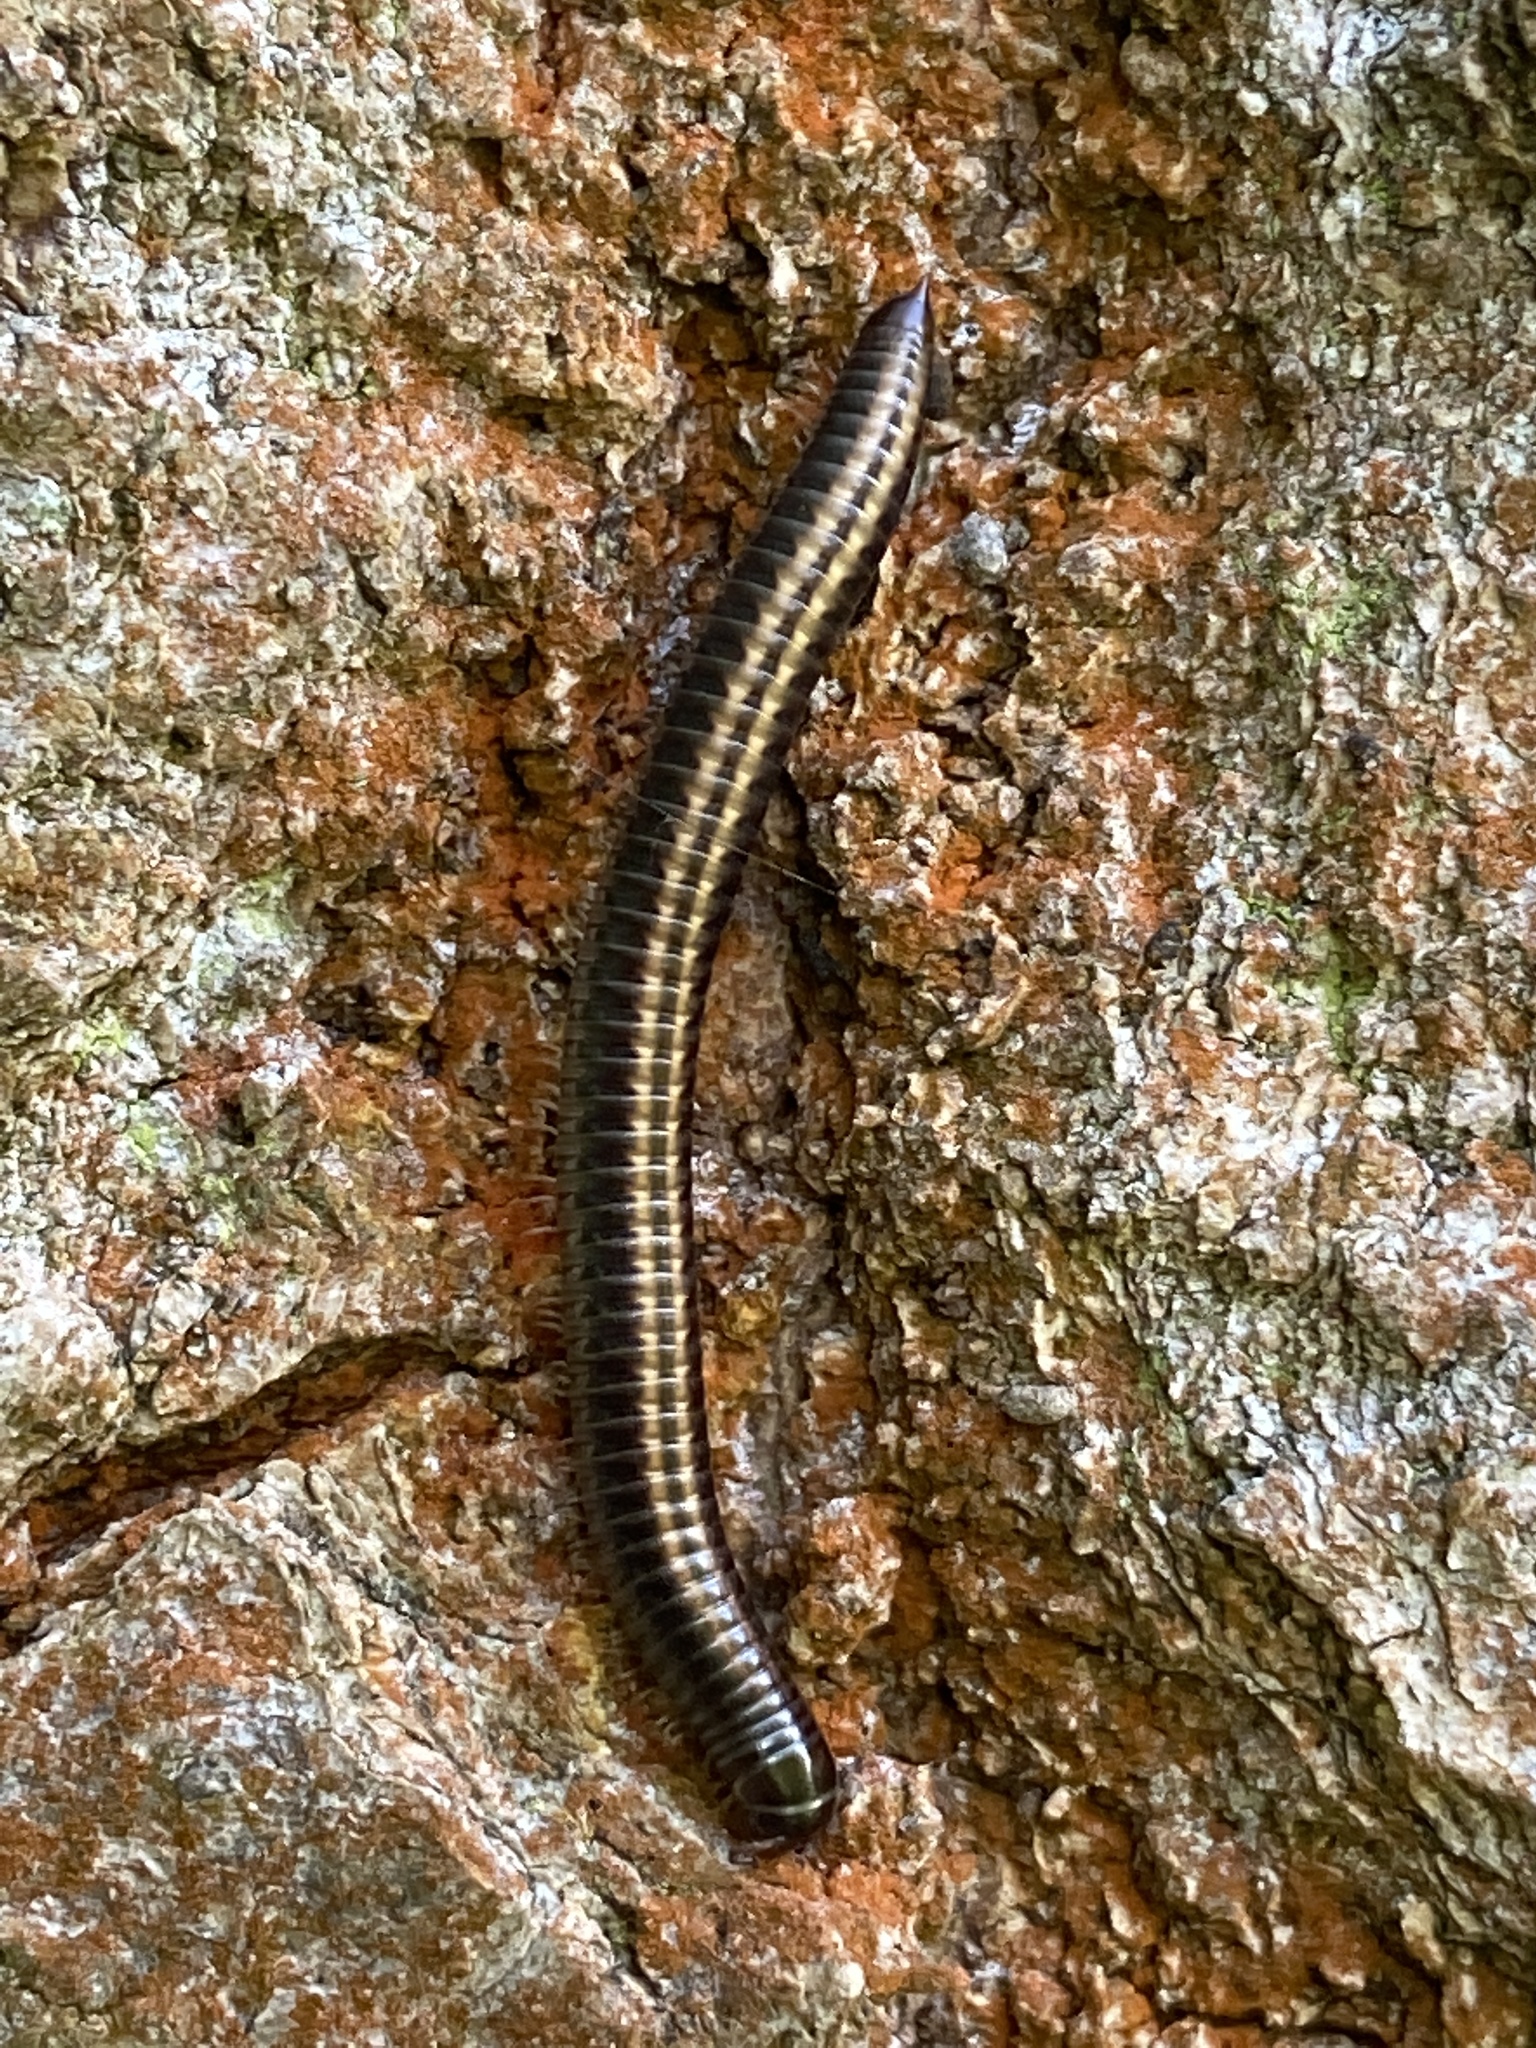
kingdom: Animalia
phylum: Arthropoda
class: Diplopoda
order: Julida
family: Julidae
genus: Ommatoiulus
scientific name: Ommatoiulus sabulosus
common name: Striped millipede
